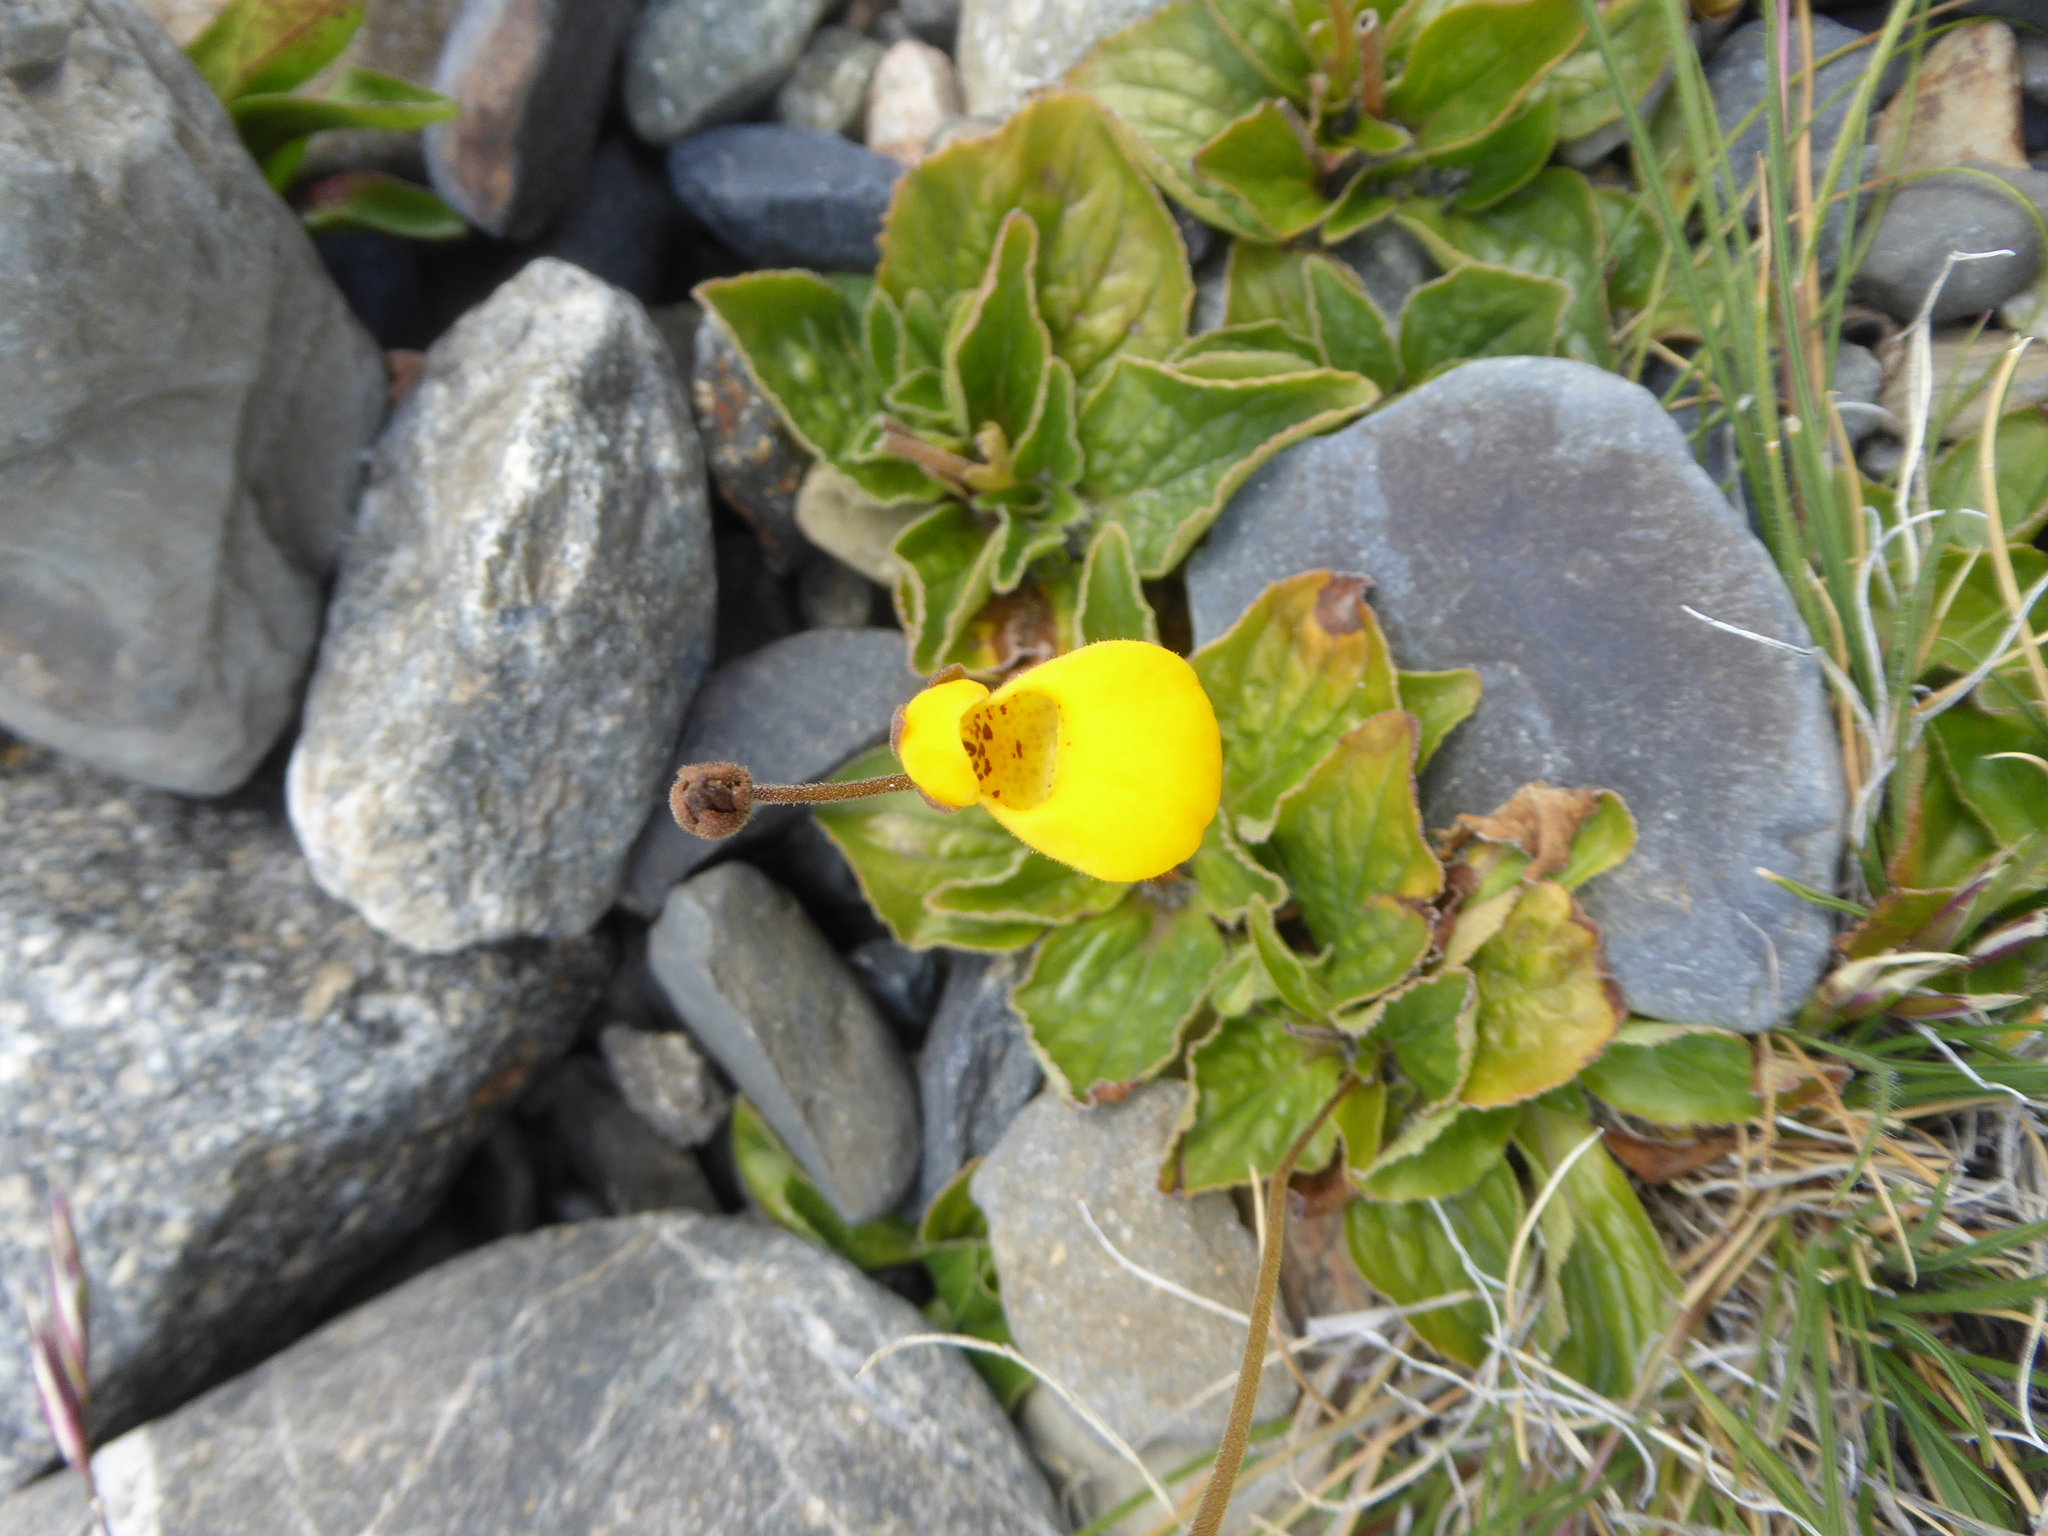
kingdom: Plantae
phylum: Tracheophyta
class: Magnoliopsida
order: Lamiales
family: Calceolariaceae
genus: Calceolaria
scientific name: Calceolaria biflora
